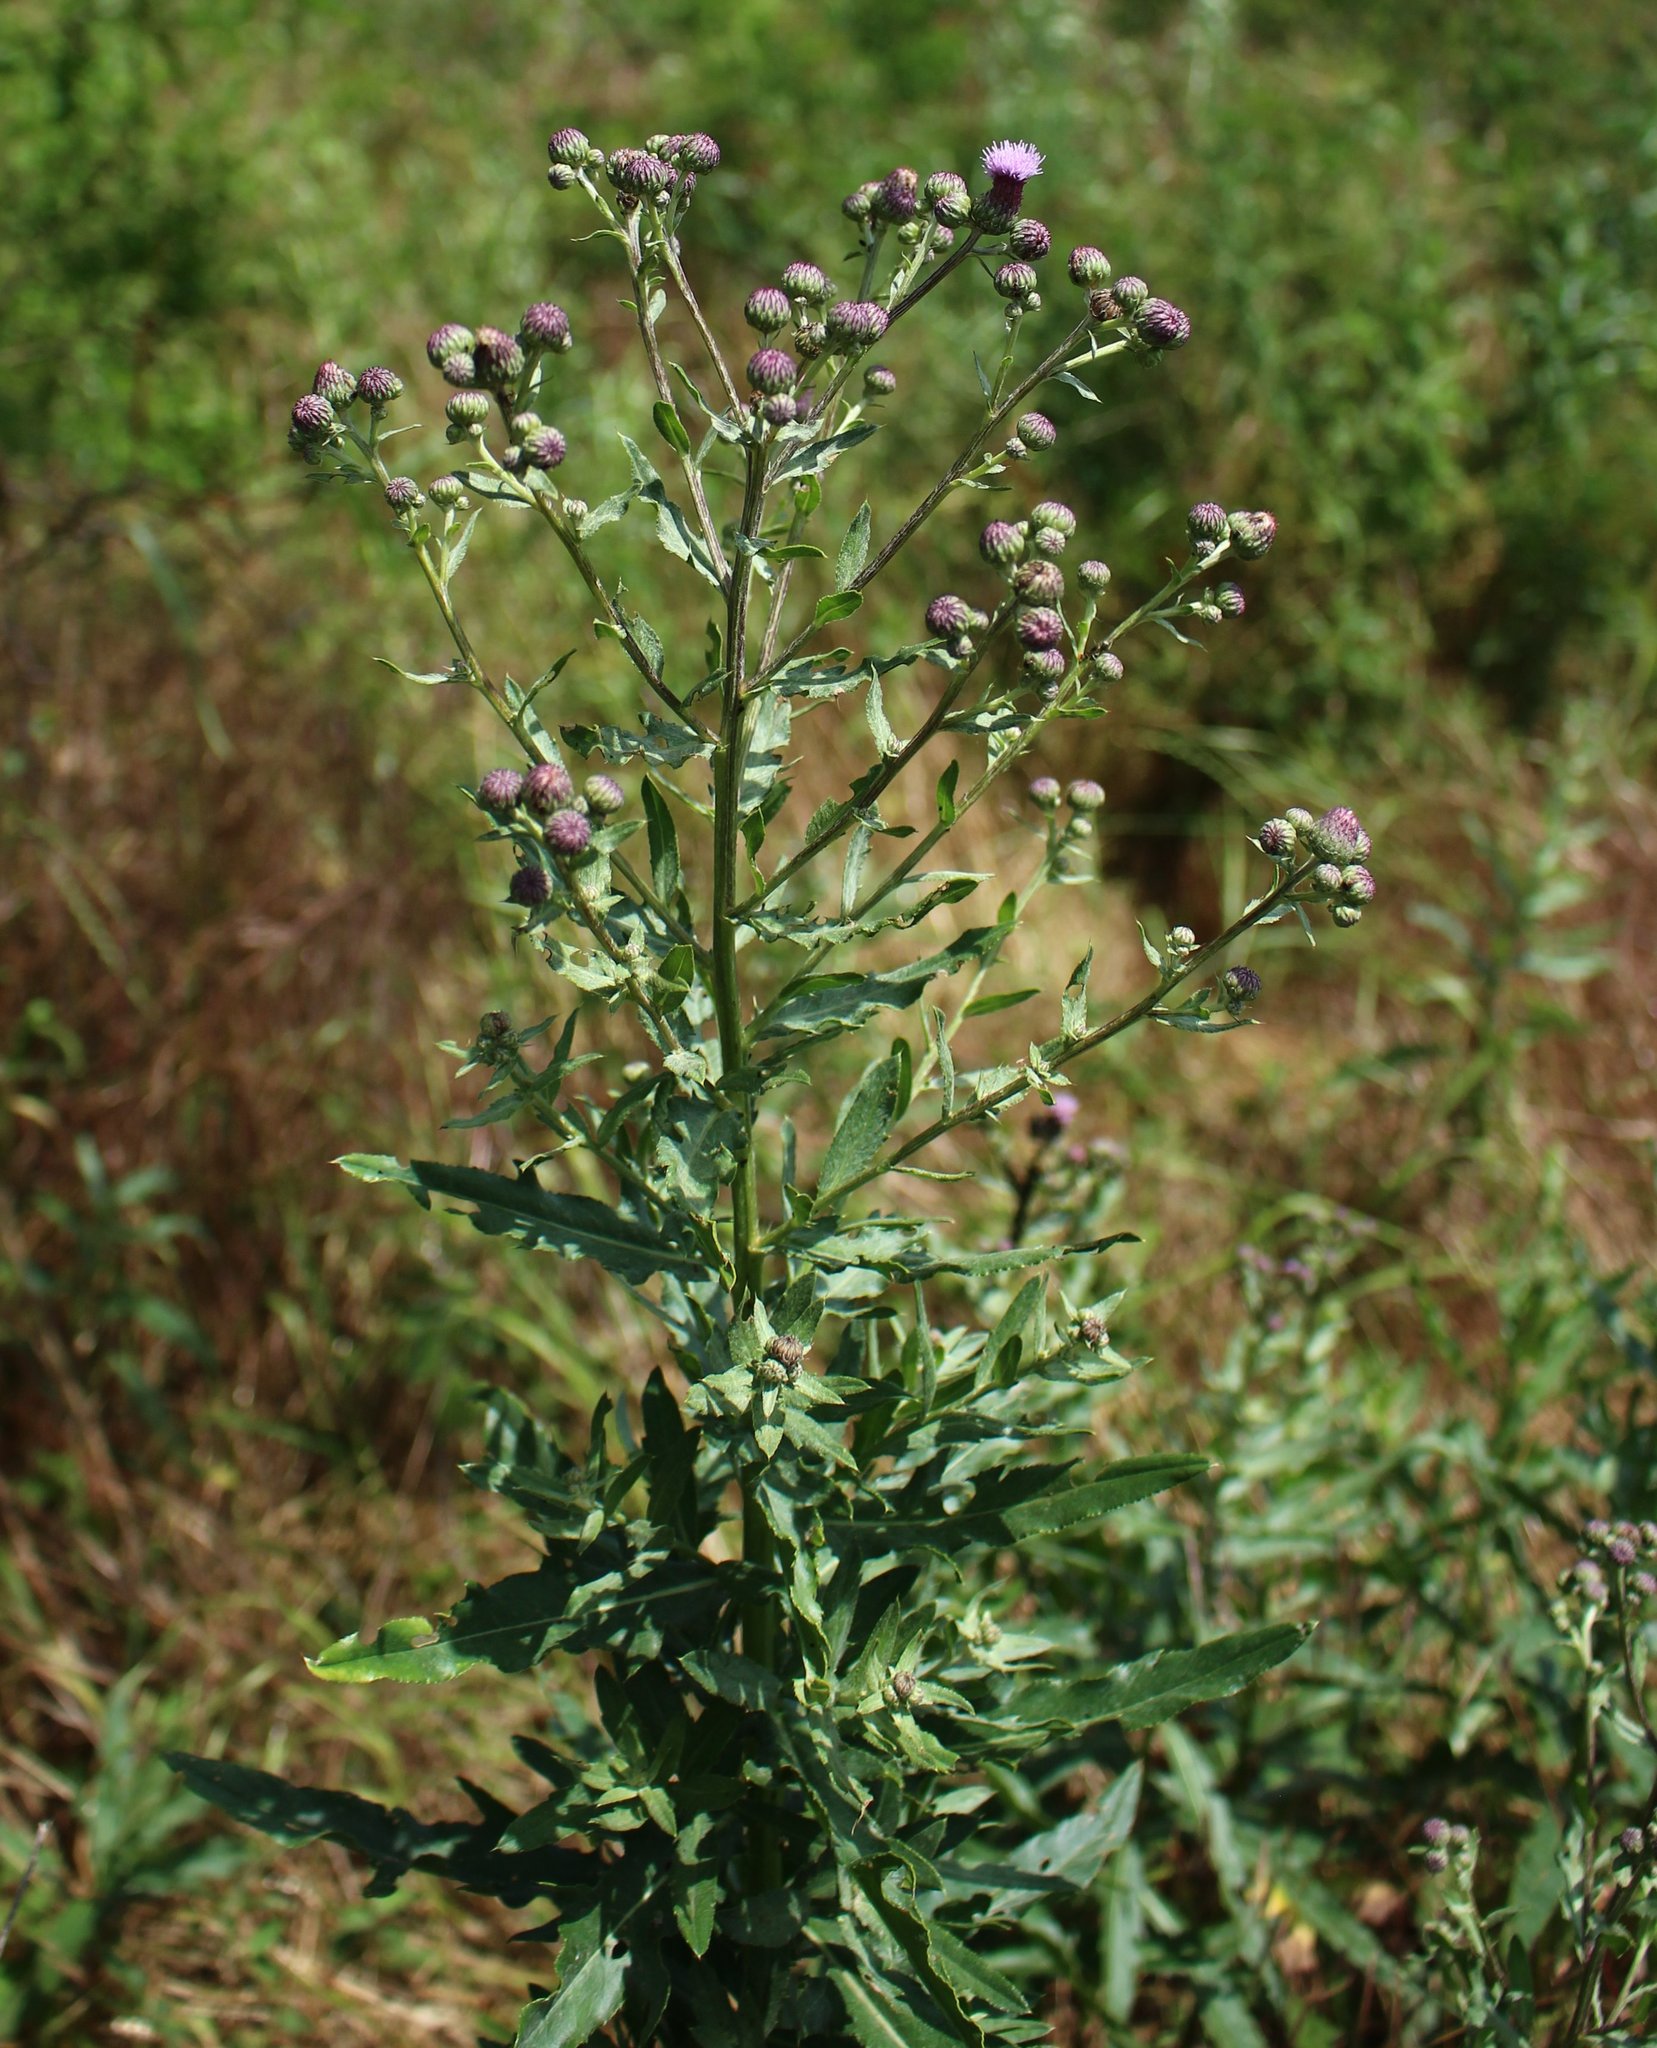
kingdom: Plantae
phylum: Tracheophyta
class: Magnoliopsida
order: Asterales
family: Asteraceae
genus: Cirsium
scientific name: Cirsium arvense
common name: Creeping thistle
